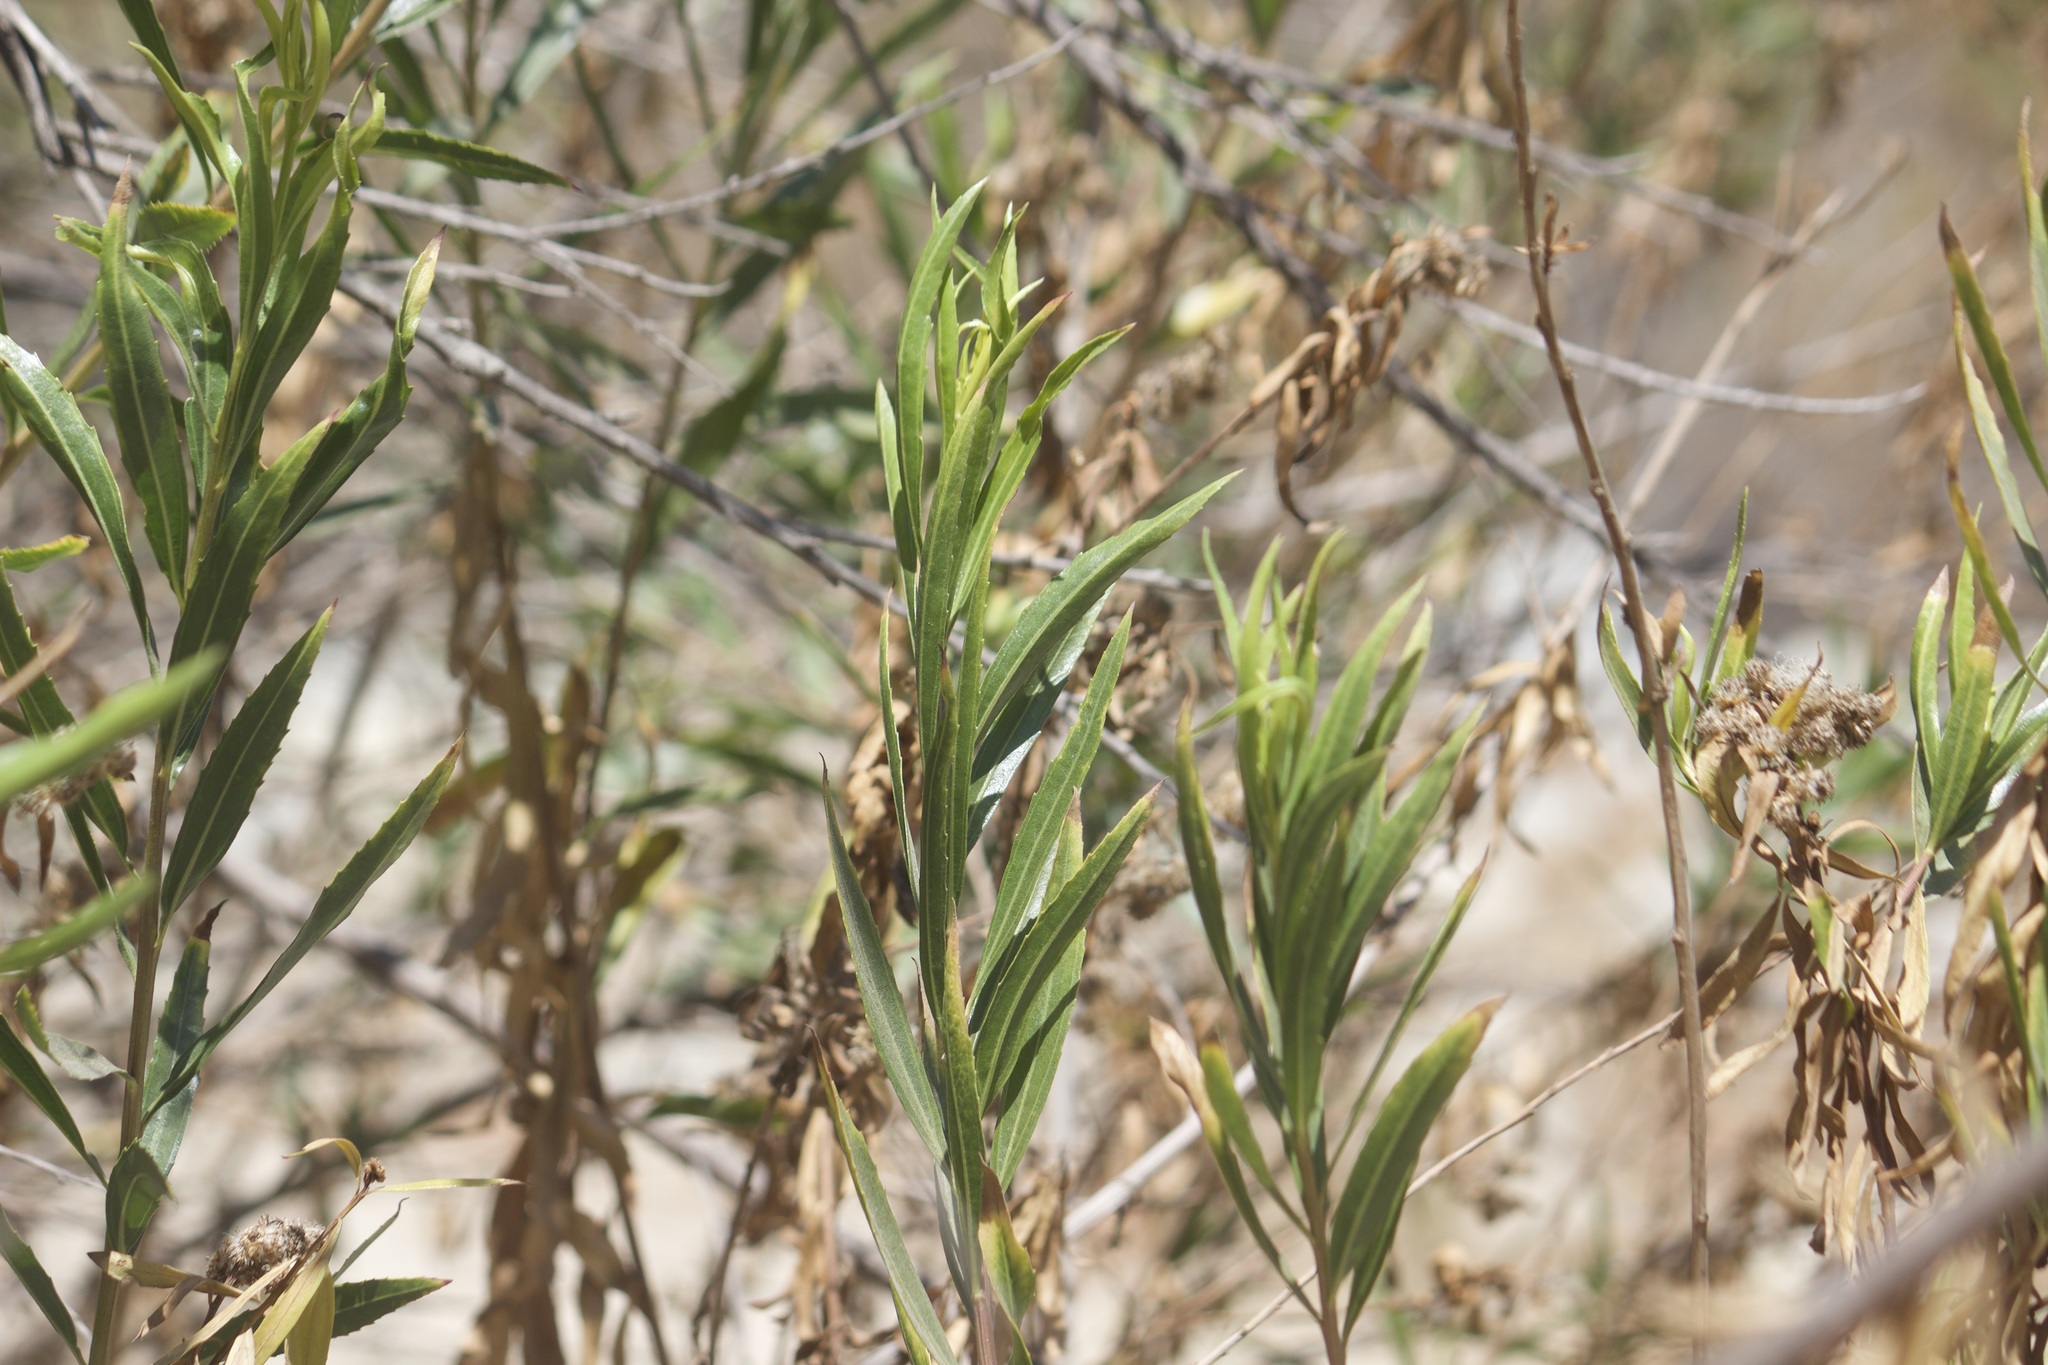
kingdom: Plantae
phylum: Tracheophyta
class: Magnoliopsida
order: Asterales
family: Asteraceae
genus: Baccharis
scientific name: Baccharis salicifolia
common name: Sticky baccharis
